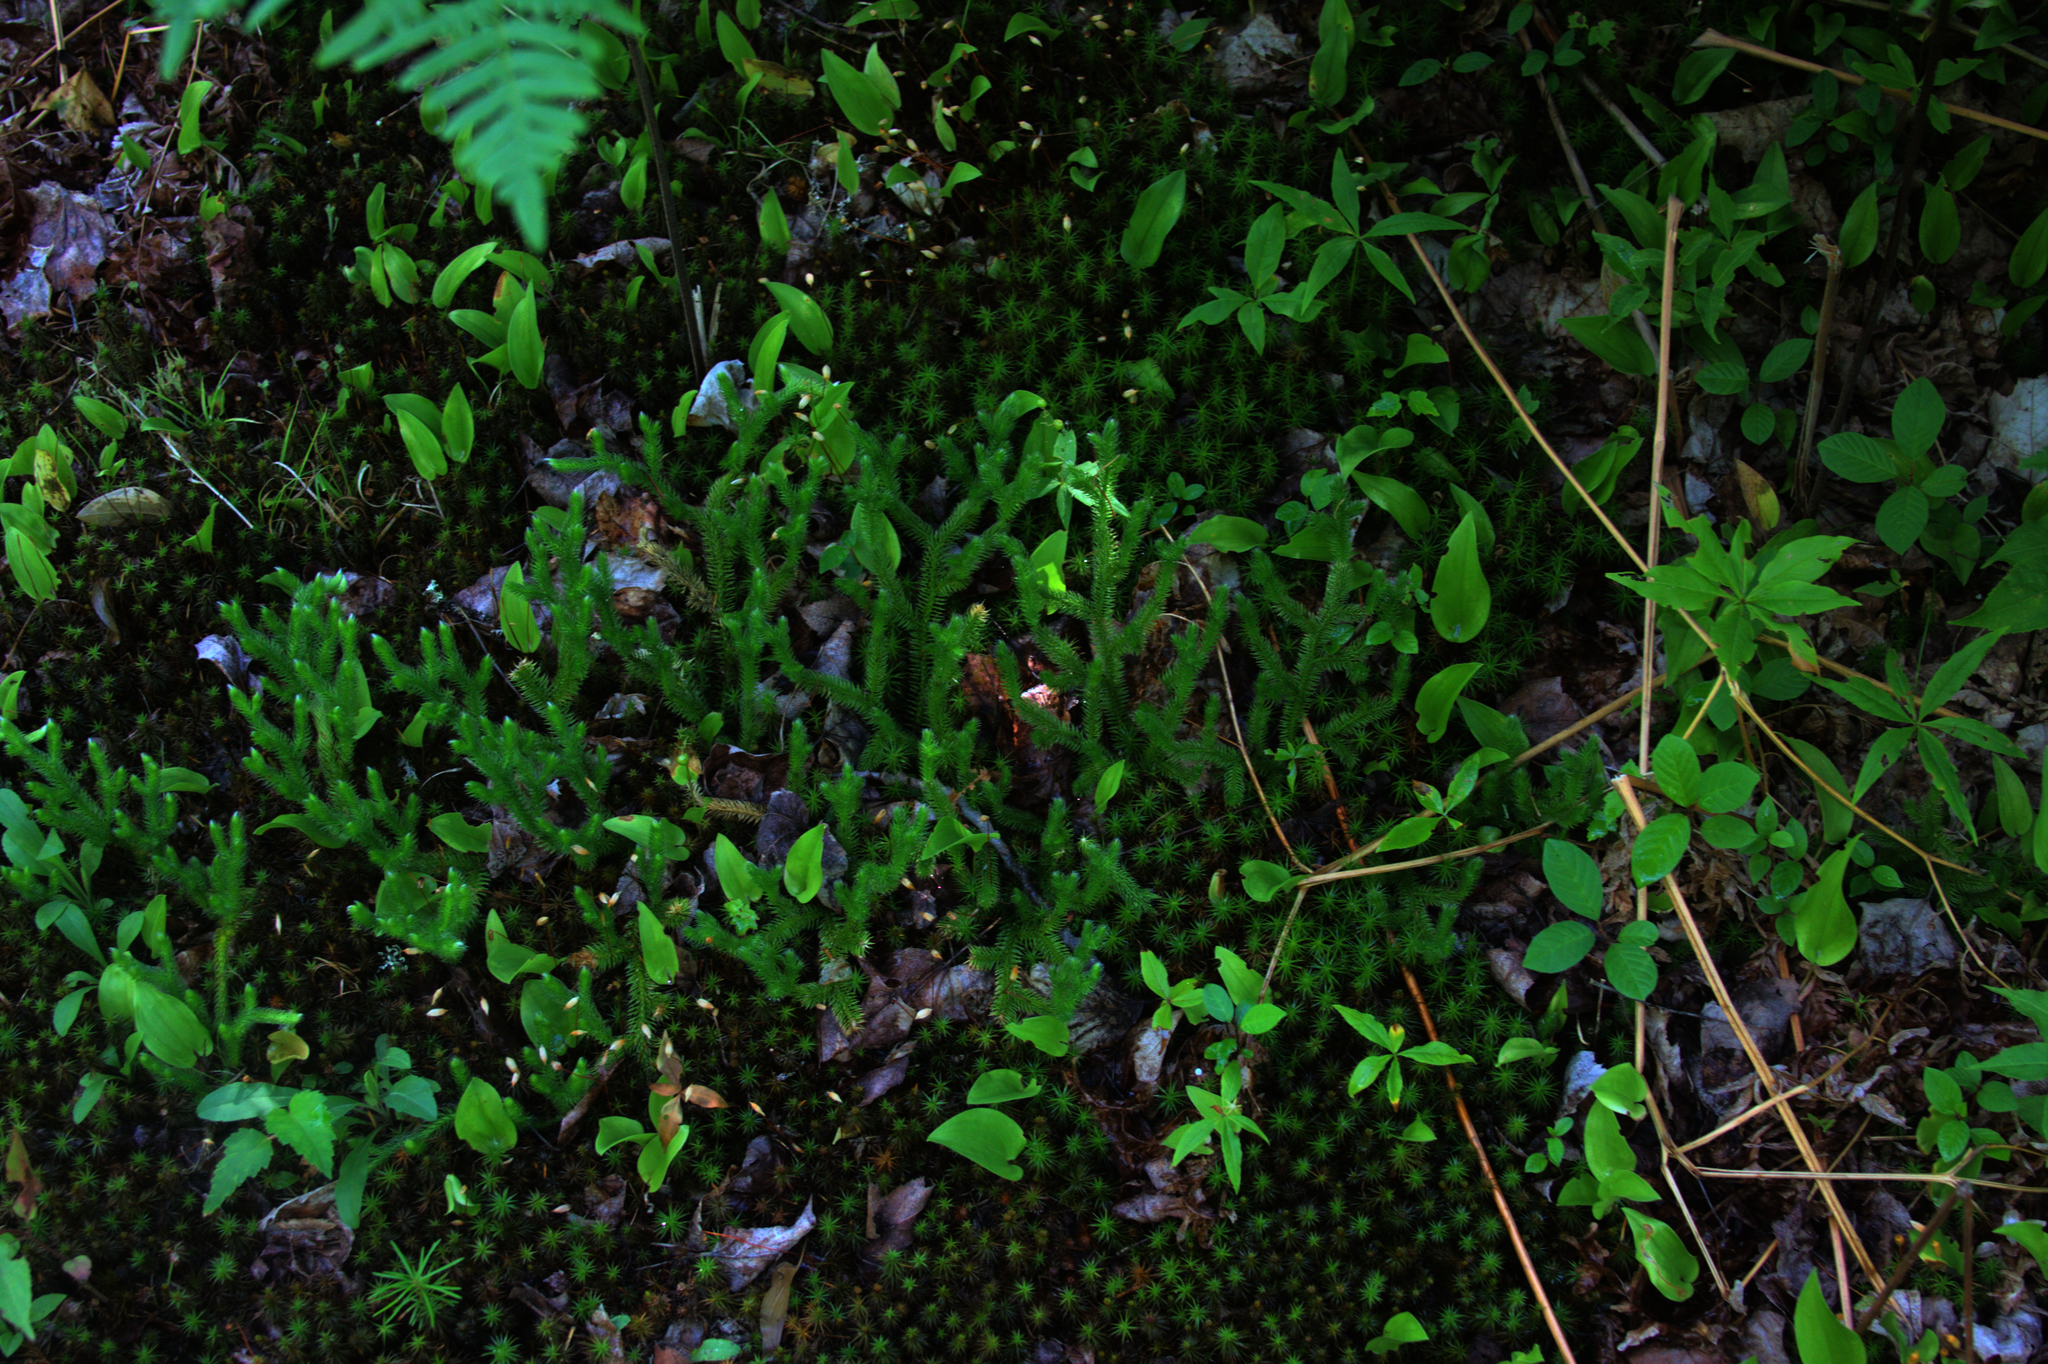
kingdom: Plantae
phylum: Tracheophyta
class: Lycopodiopsida
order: Lycopodiales
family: Lycopodiaceae
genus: Lycopodium
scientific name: Lycopodium clavatum
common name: Stag's-horn clubmoss
